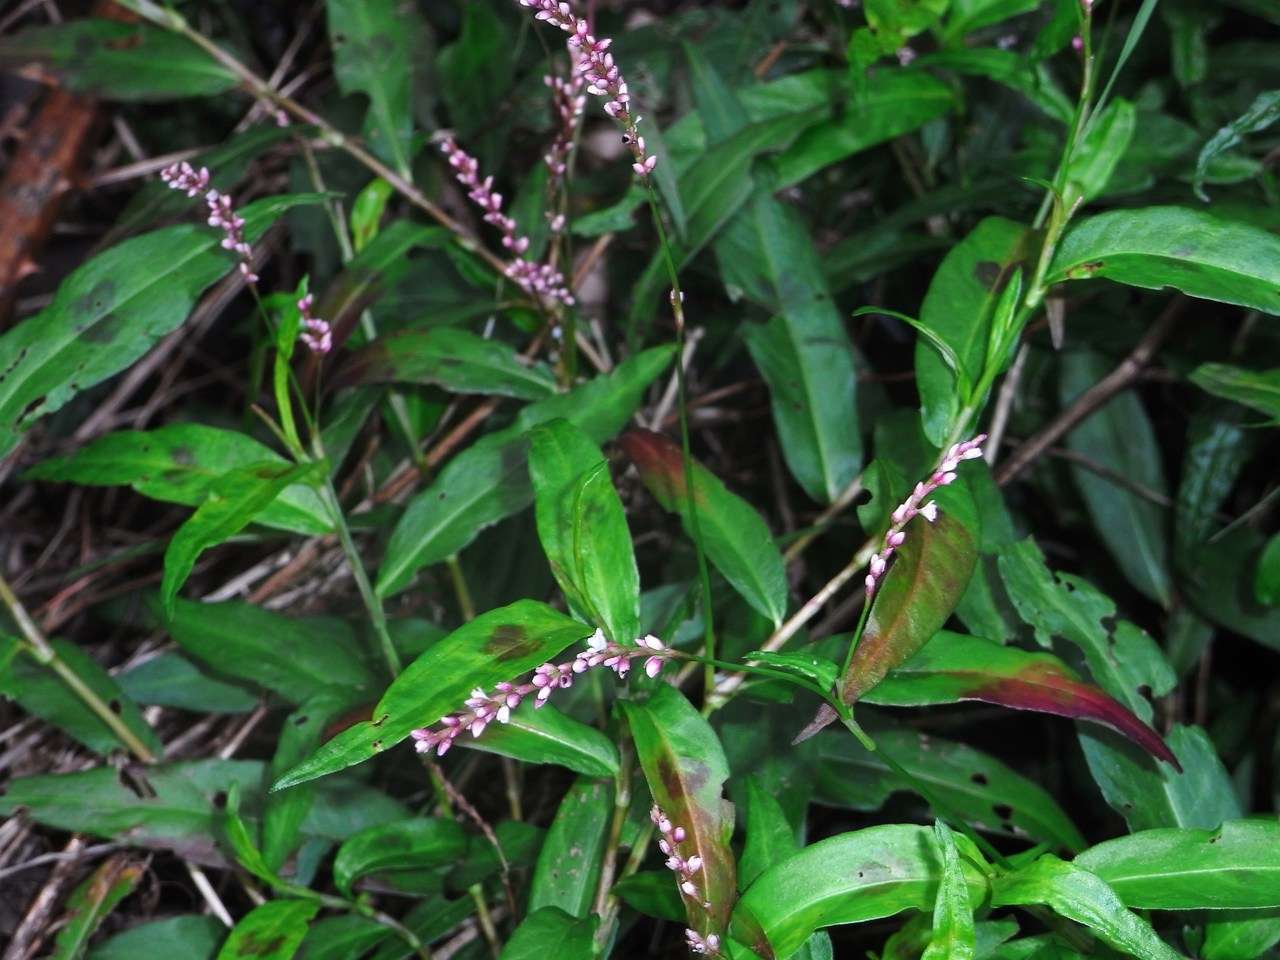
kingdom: Plantae
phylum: Tracheophyta
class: Magnoliopsida
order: Caryophyllales
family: Polygonaceae
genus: Persicaria
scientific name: Persicaria decipiens
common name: Willow-weed
